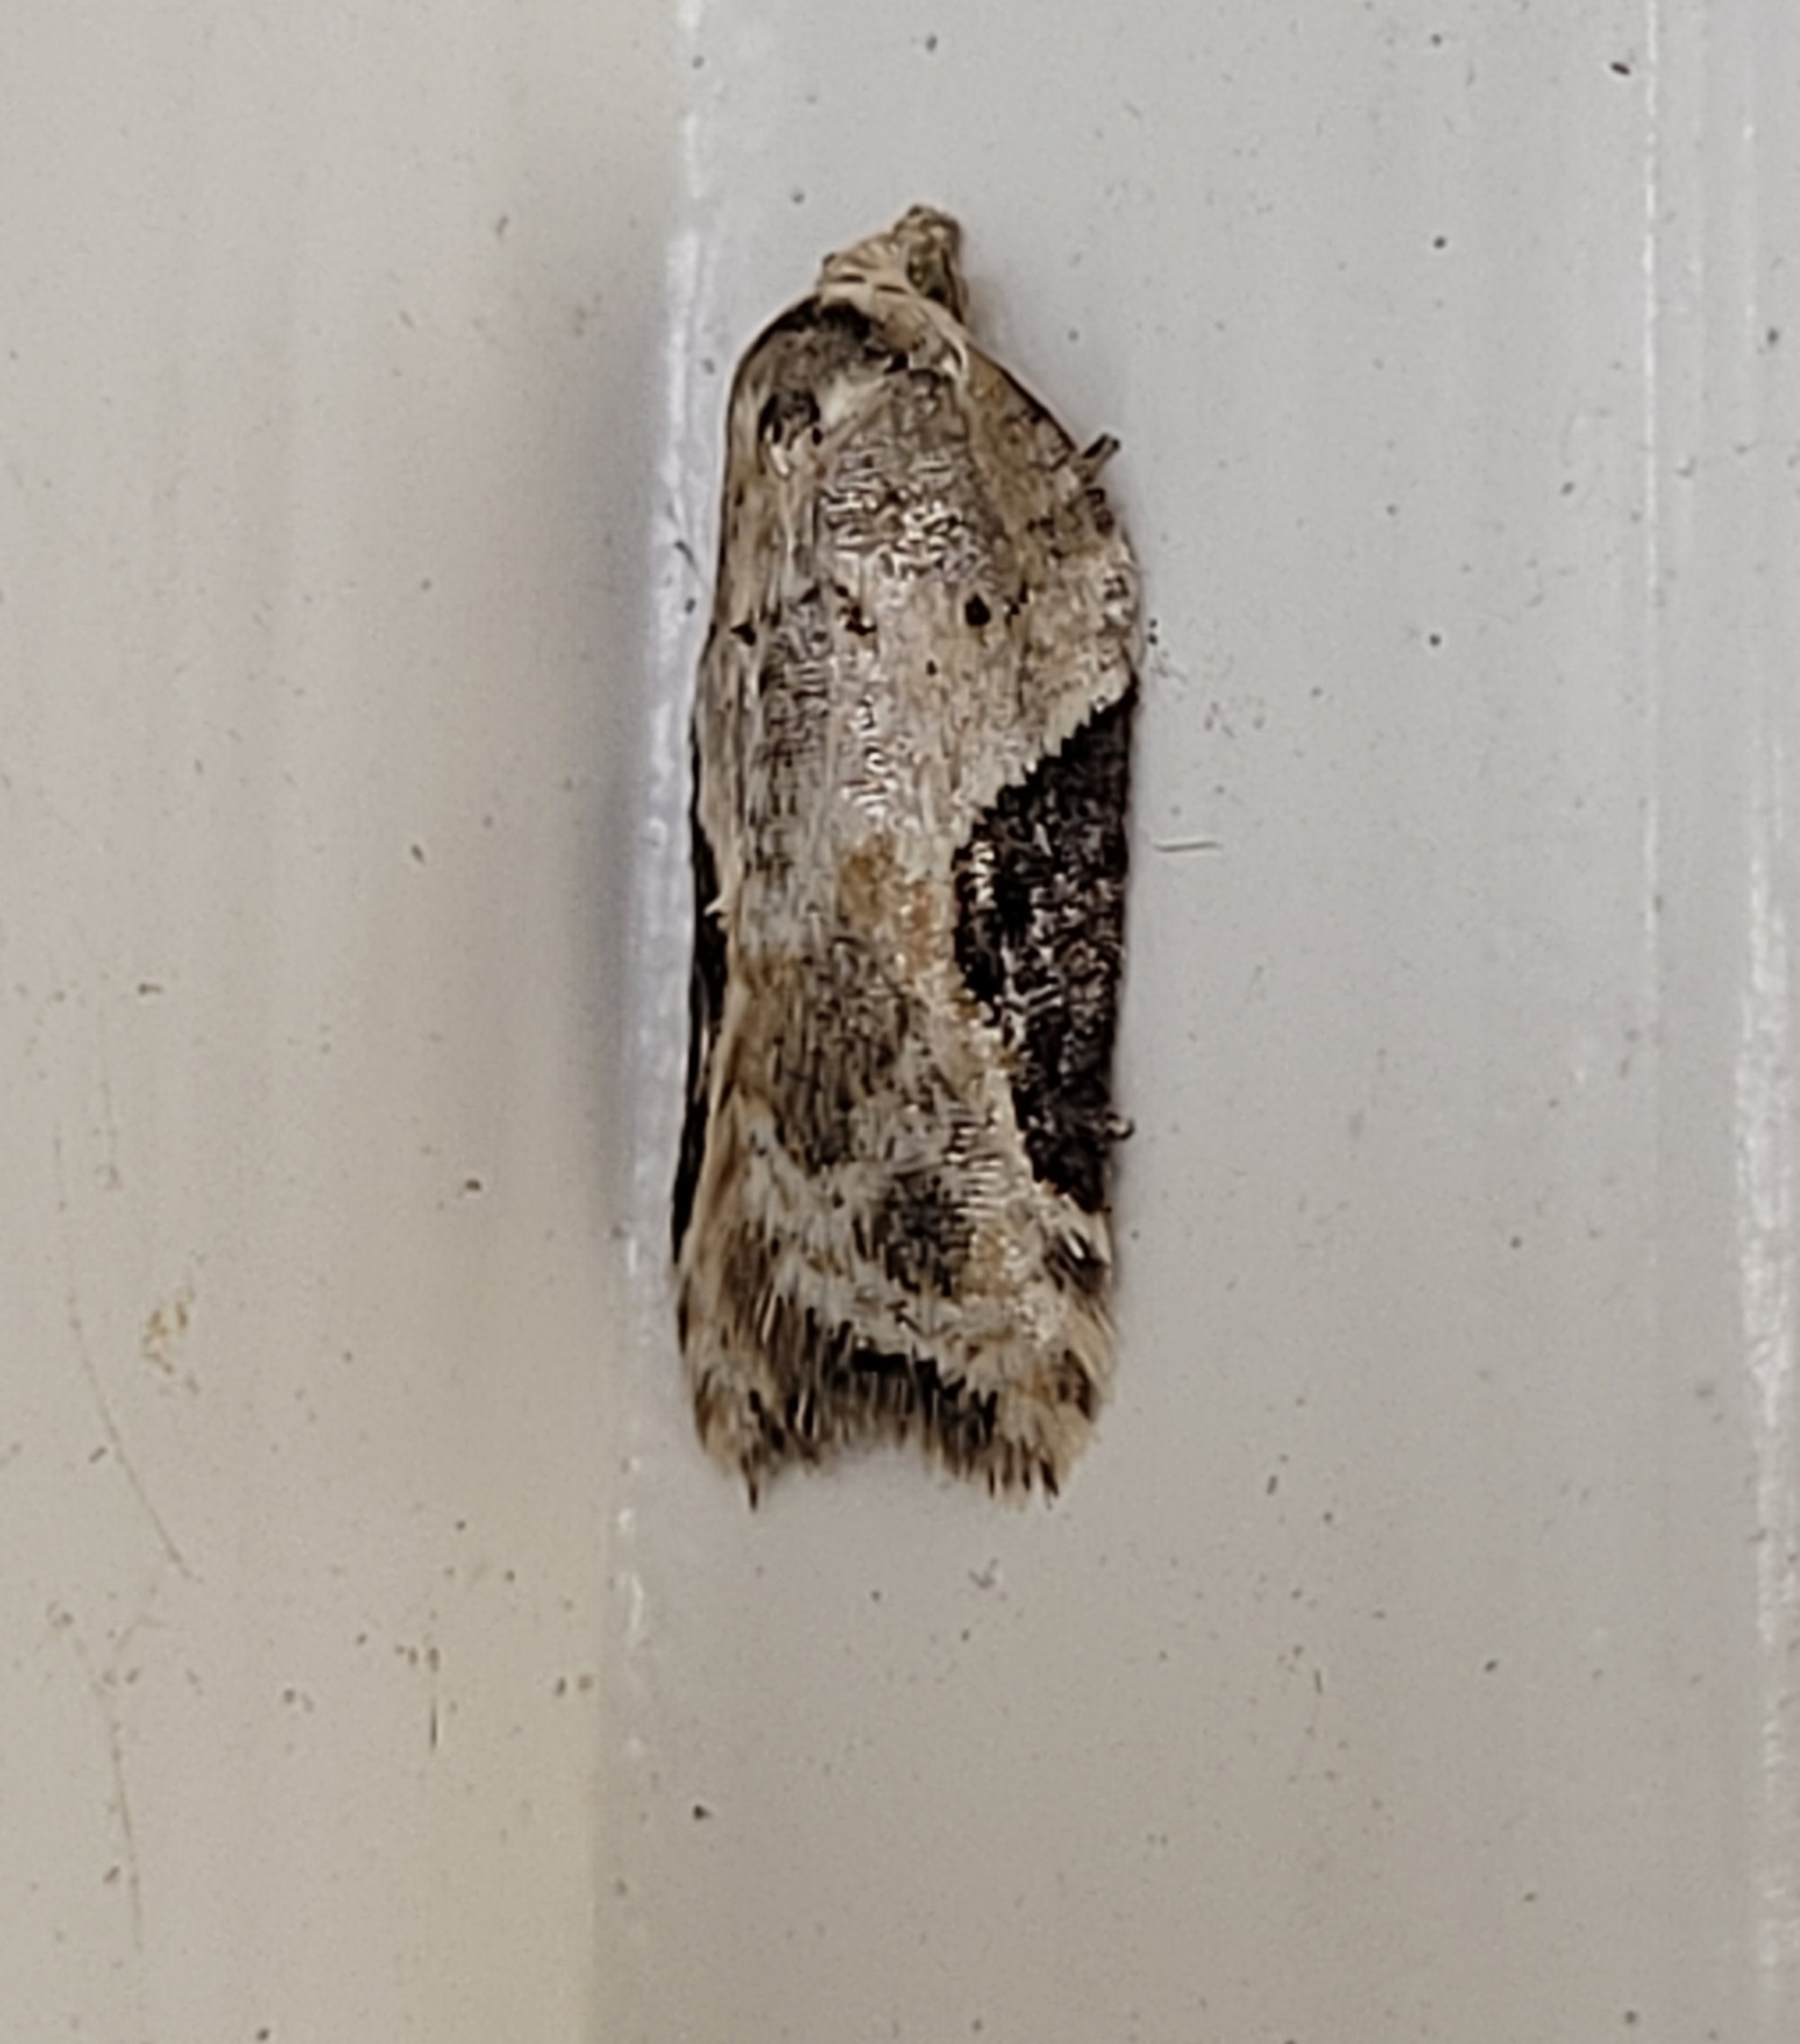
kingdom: Animalia
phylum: Arthropoda
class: Insecta
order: Lepidoptera
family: Tortricidae
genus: Acleris
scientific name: Acleris forbesana
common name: Forbes' acleris moth
